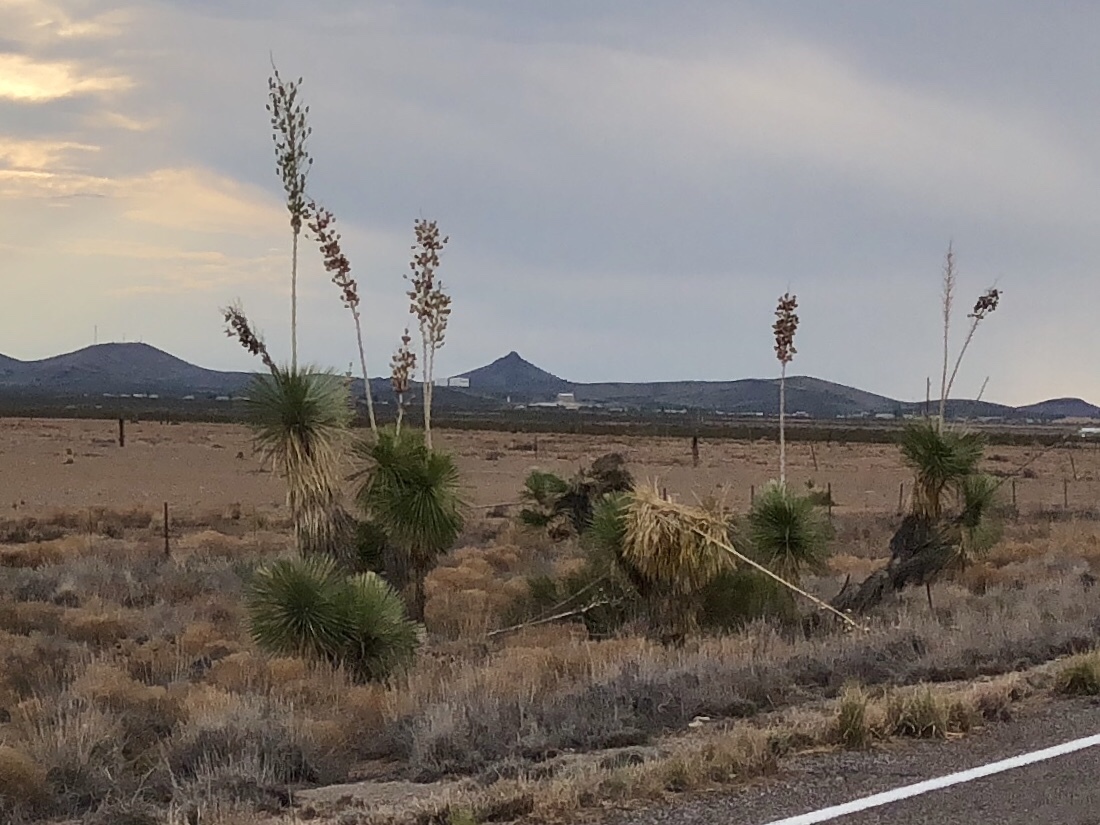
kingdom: Plantae
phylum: Tracheophyta
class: Liliopsida
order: Asparagales
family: Asparagaceae
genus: Yucca
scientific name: Yucca elata
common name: Palmella
